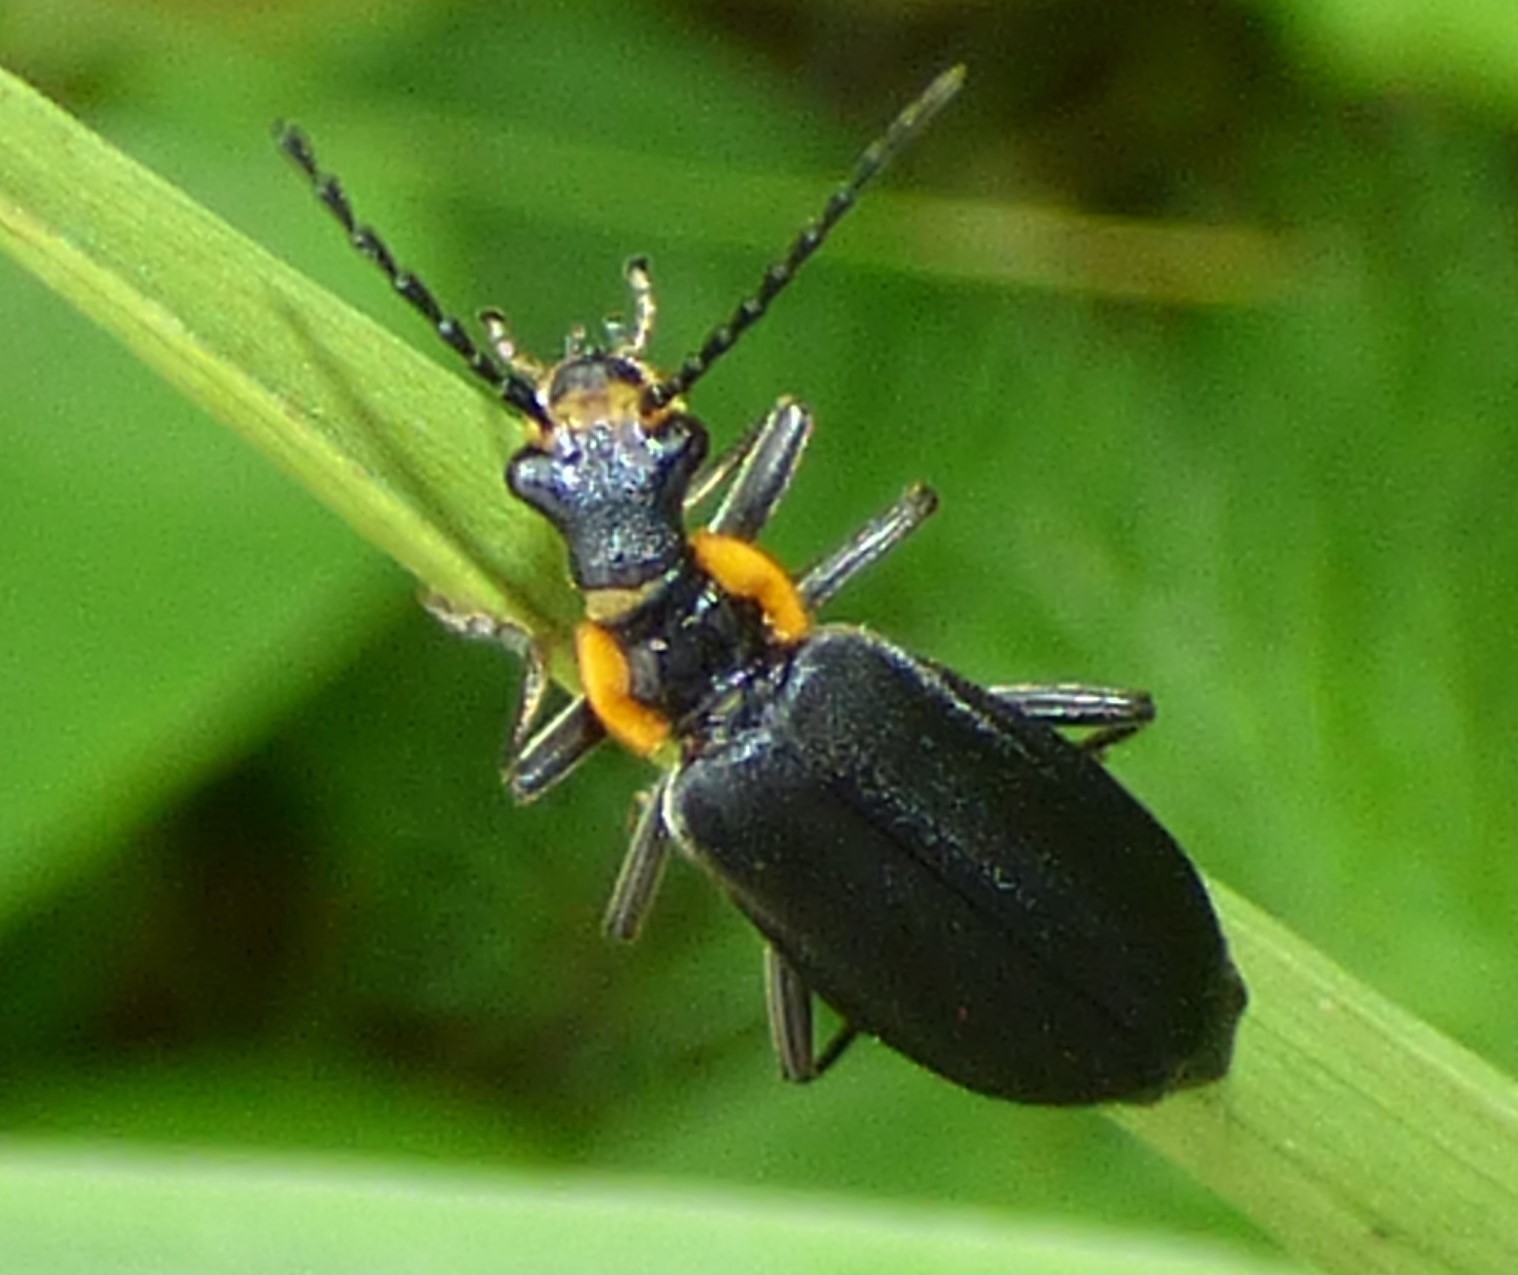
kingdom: Animalia
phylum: Arthropoda
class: Insecta
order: Coleoptera
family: Cantharidae
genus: Podabrus
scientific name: Podabrus rugosulus
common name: Wrinkled soldier beetle
